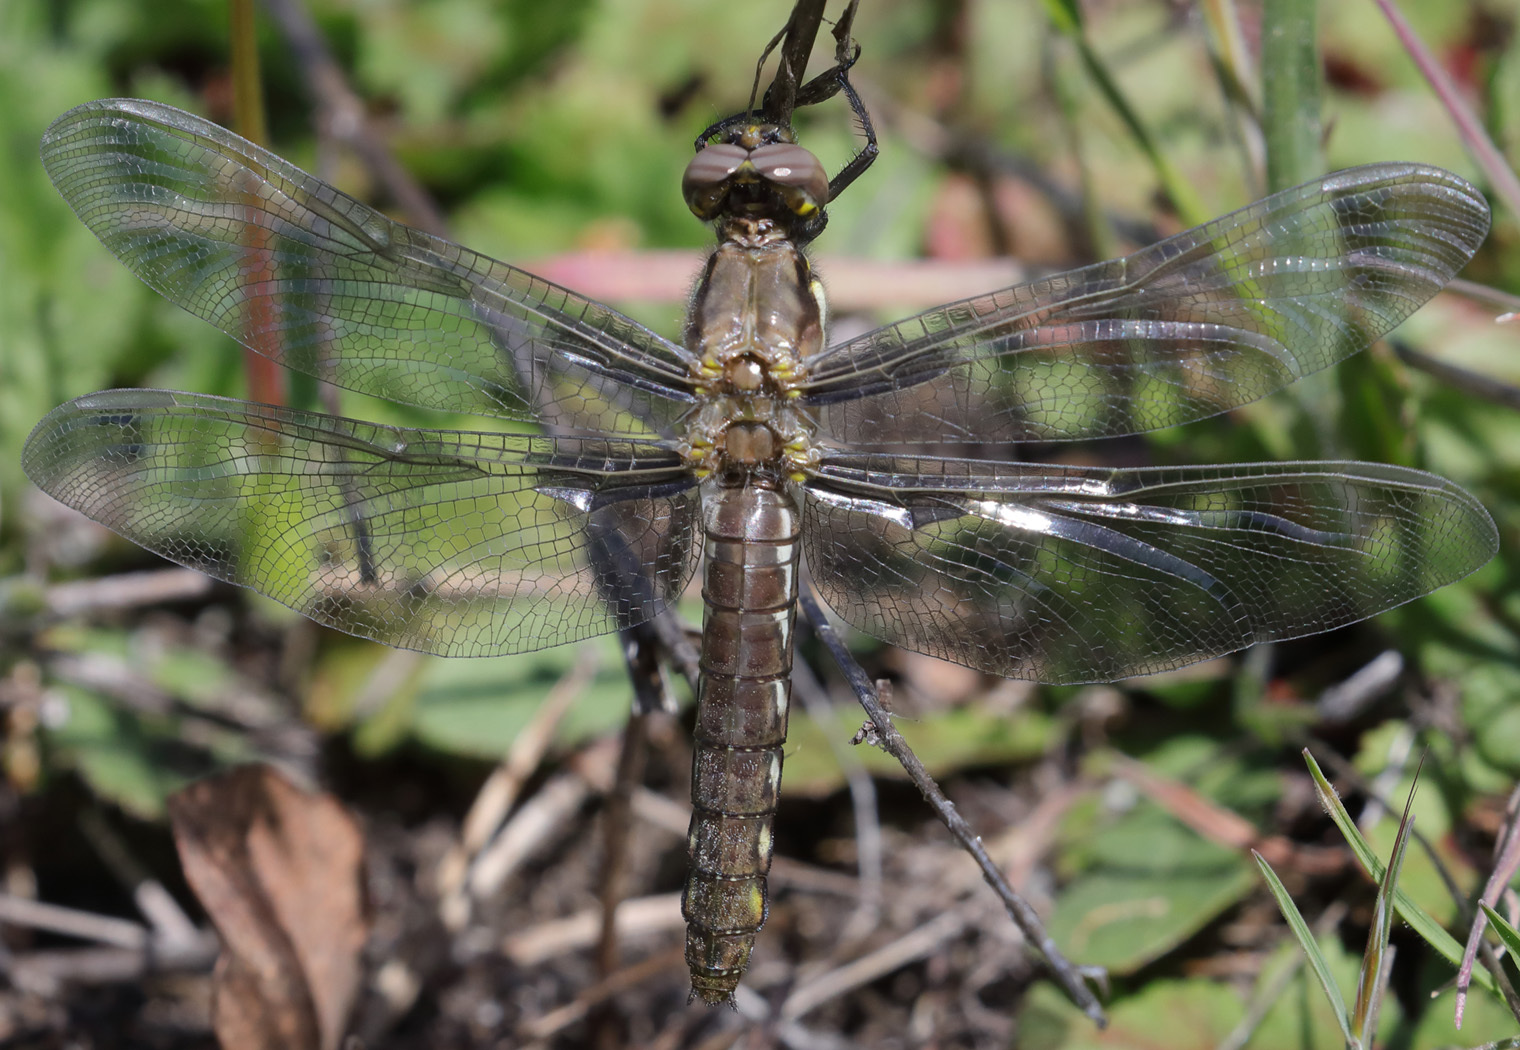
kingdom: Animalia
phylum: Arthropoda
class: Insecta
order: Odonata
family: Libellulidae
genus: Plathemis
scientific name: Plathemis lydia
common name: Common whitetail
